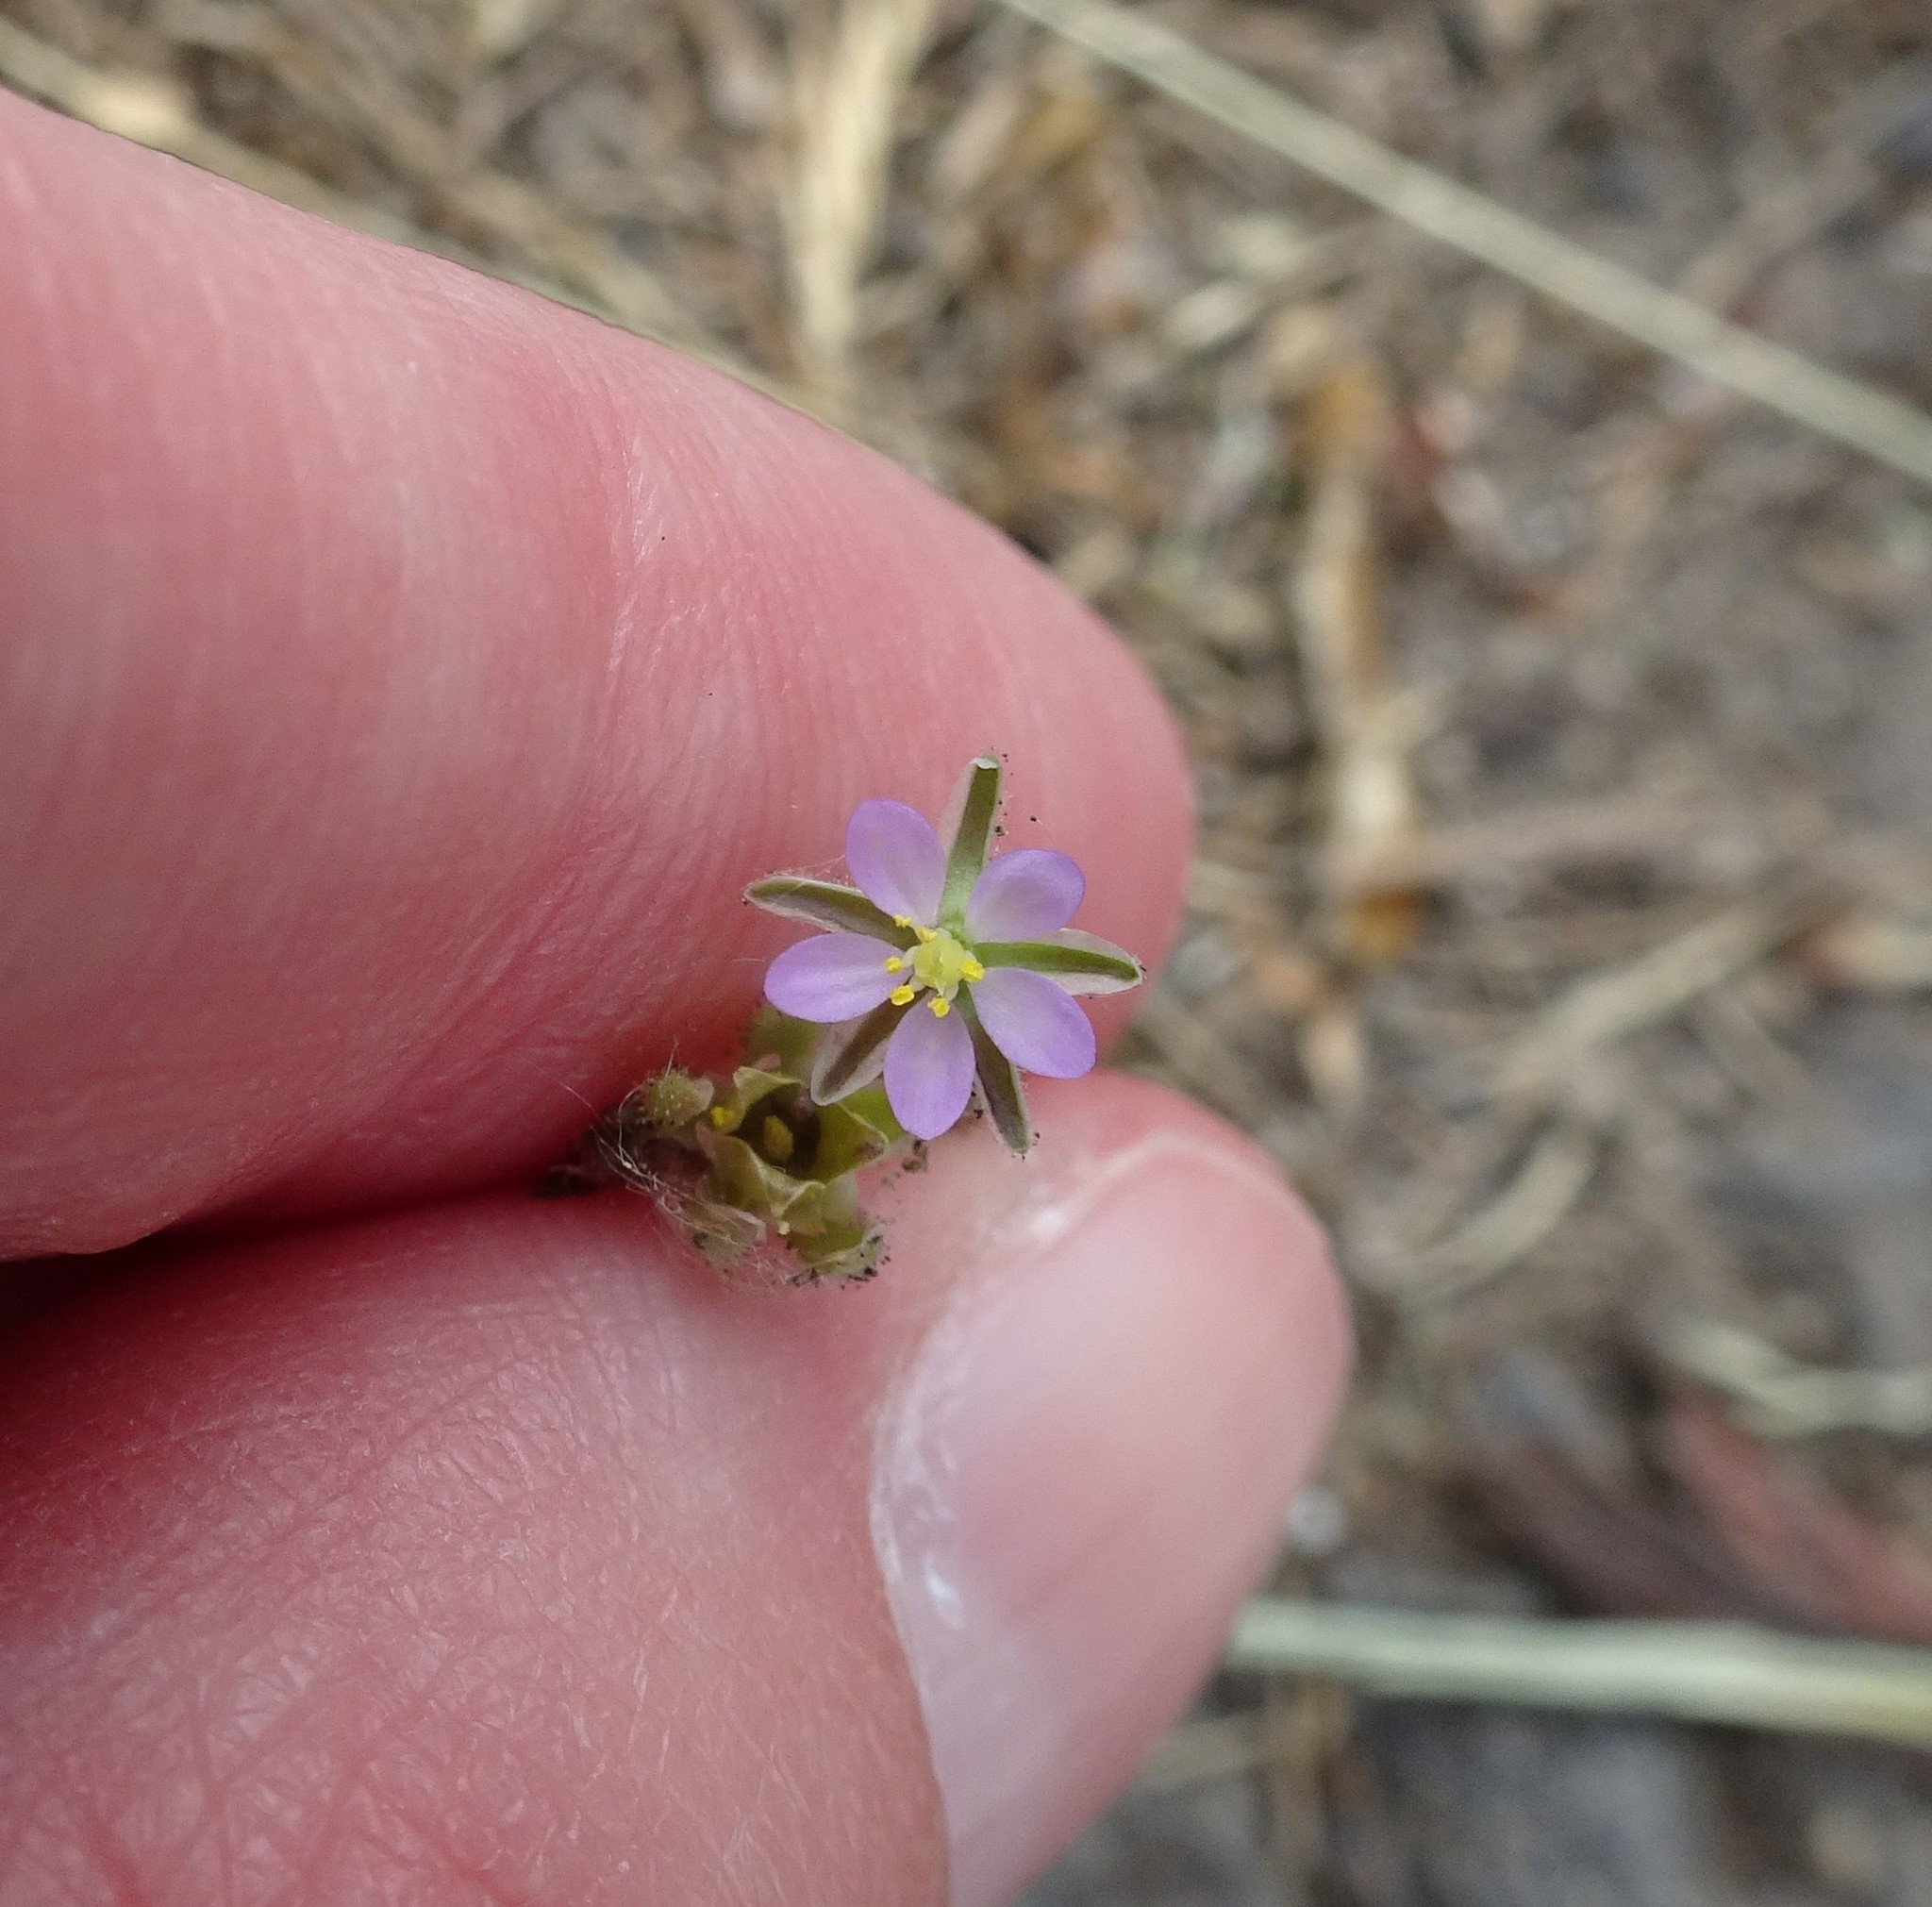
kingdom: Plantae
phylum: Tracheophyta
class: Magnoliopsida
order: Caryophyllales
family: Caryophyllaceae
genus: Spergularia
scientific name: Spergularia rubra
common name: Red sand-spurrey
